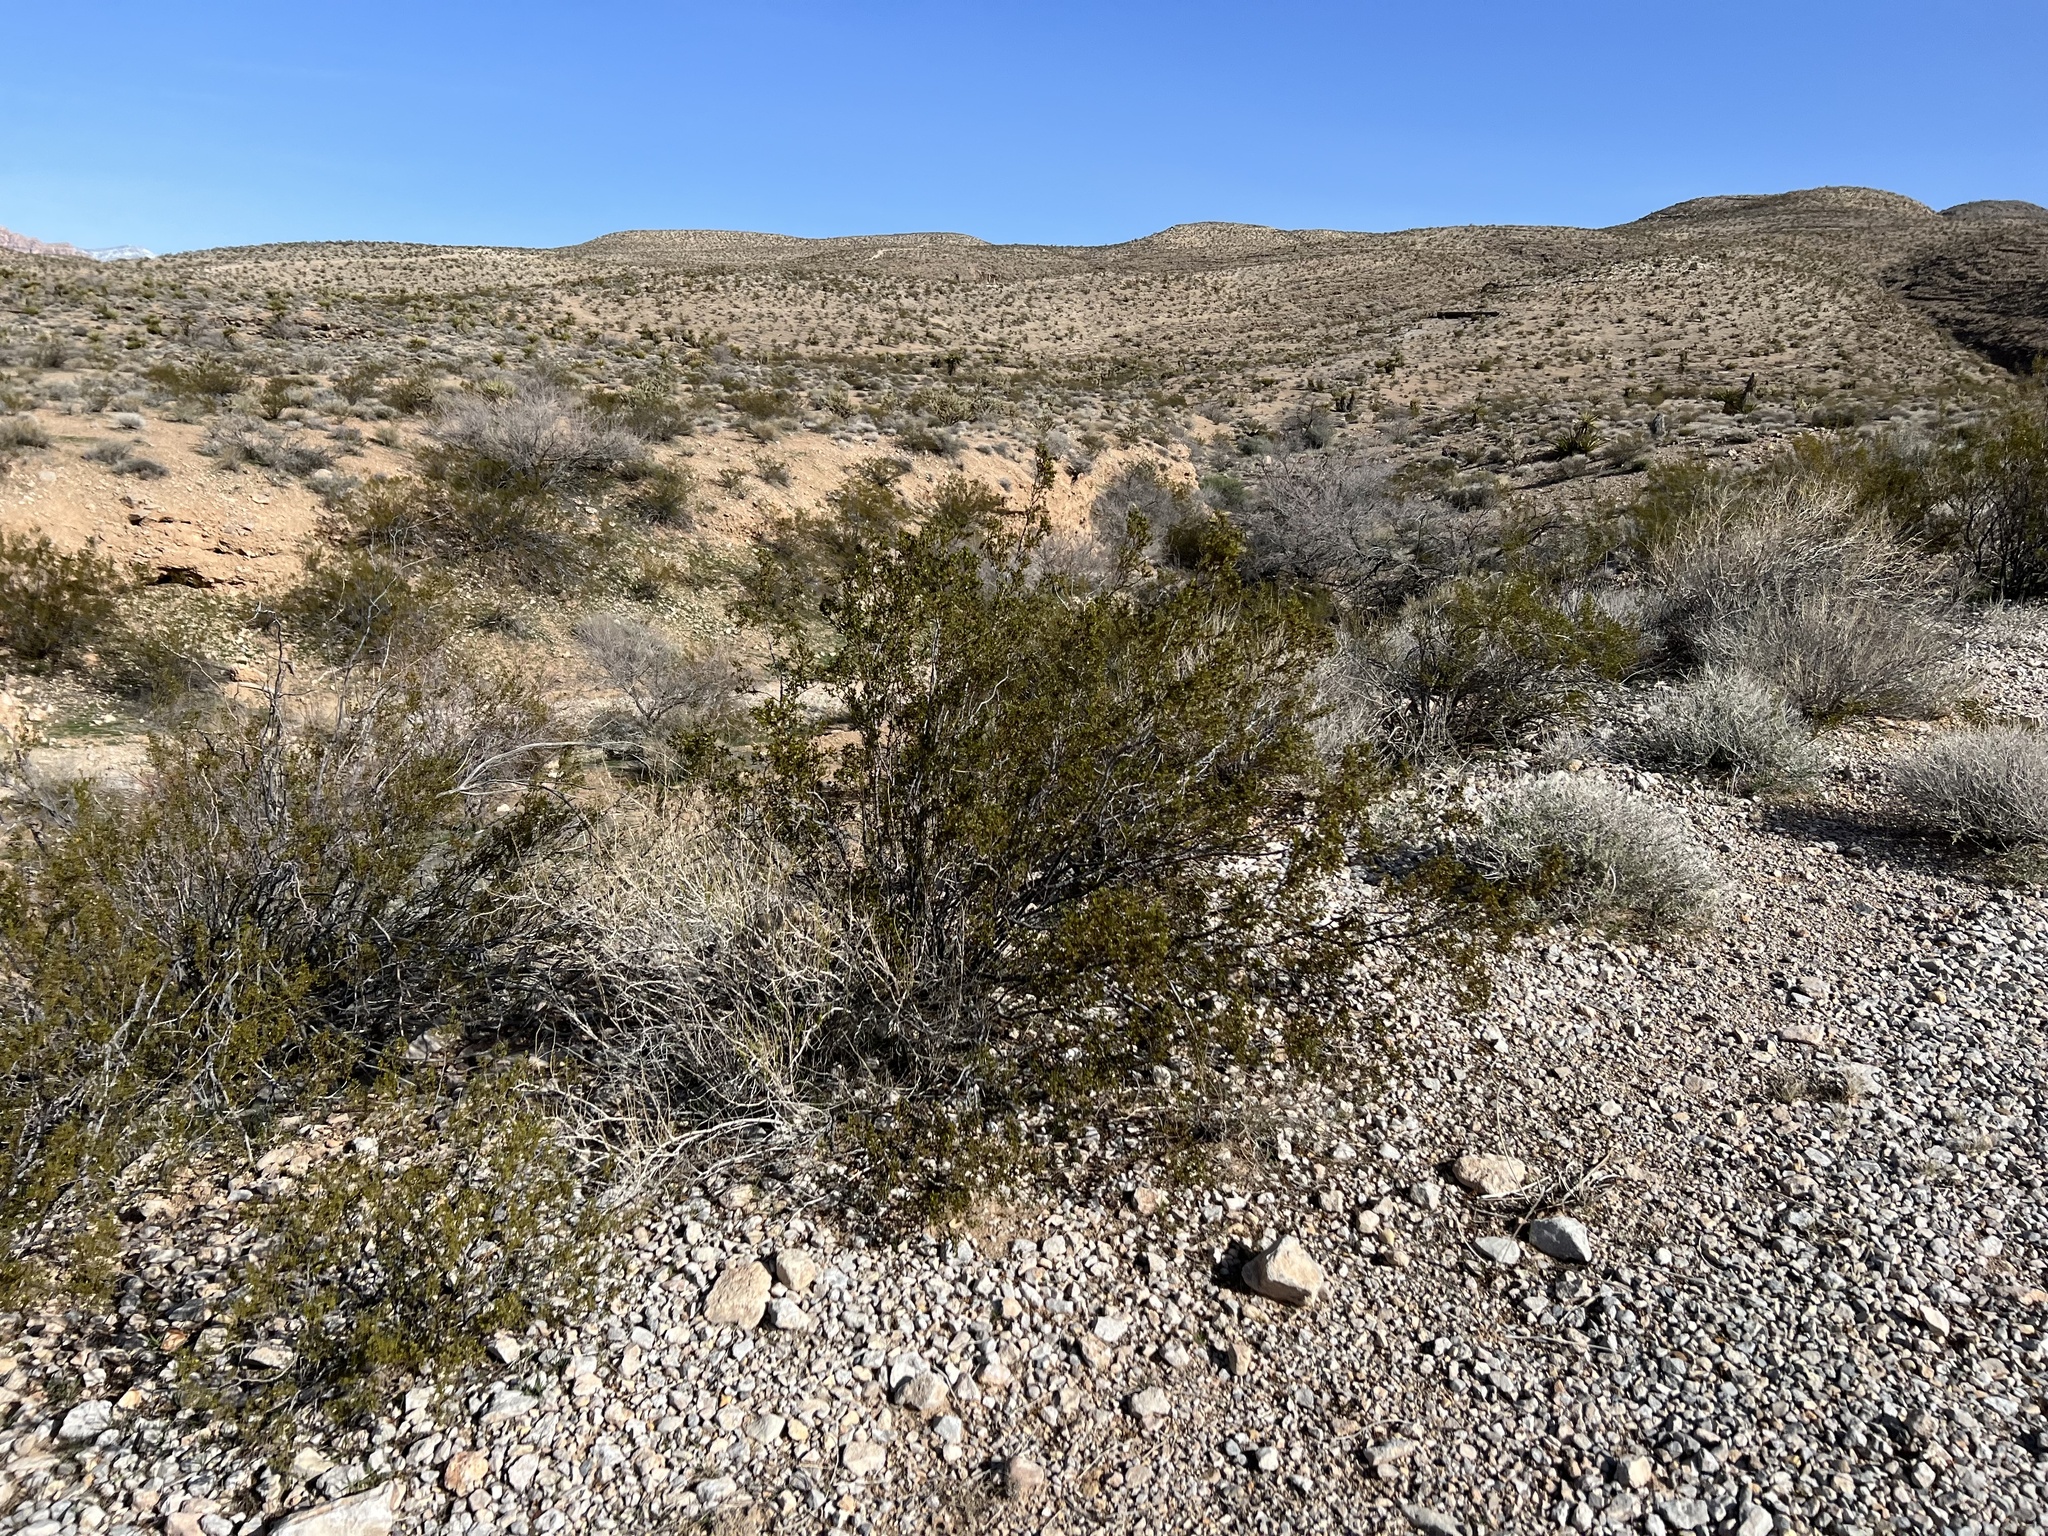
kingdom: Plantae
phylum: Tracheophyta
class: Magnoliopsida
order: Zygophyllales
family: Zygophyllaceae
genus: Larrea
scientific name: Larrea tridentata
